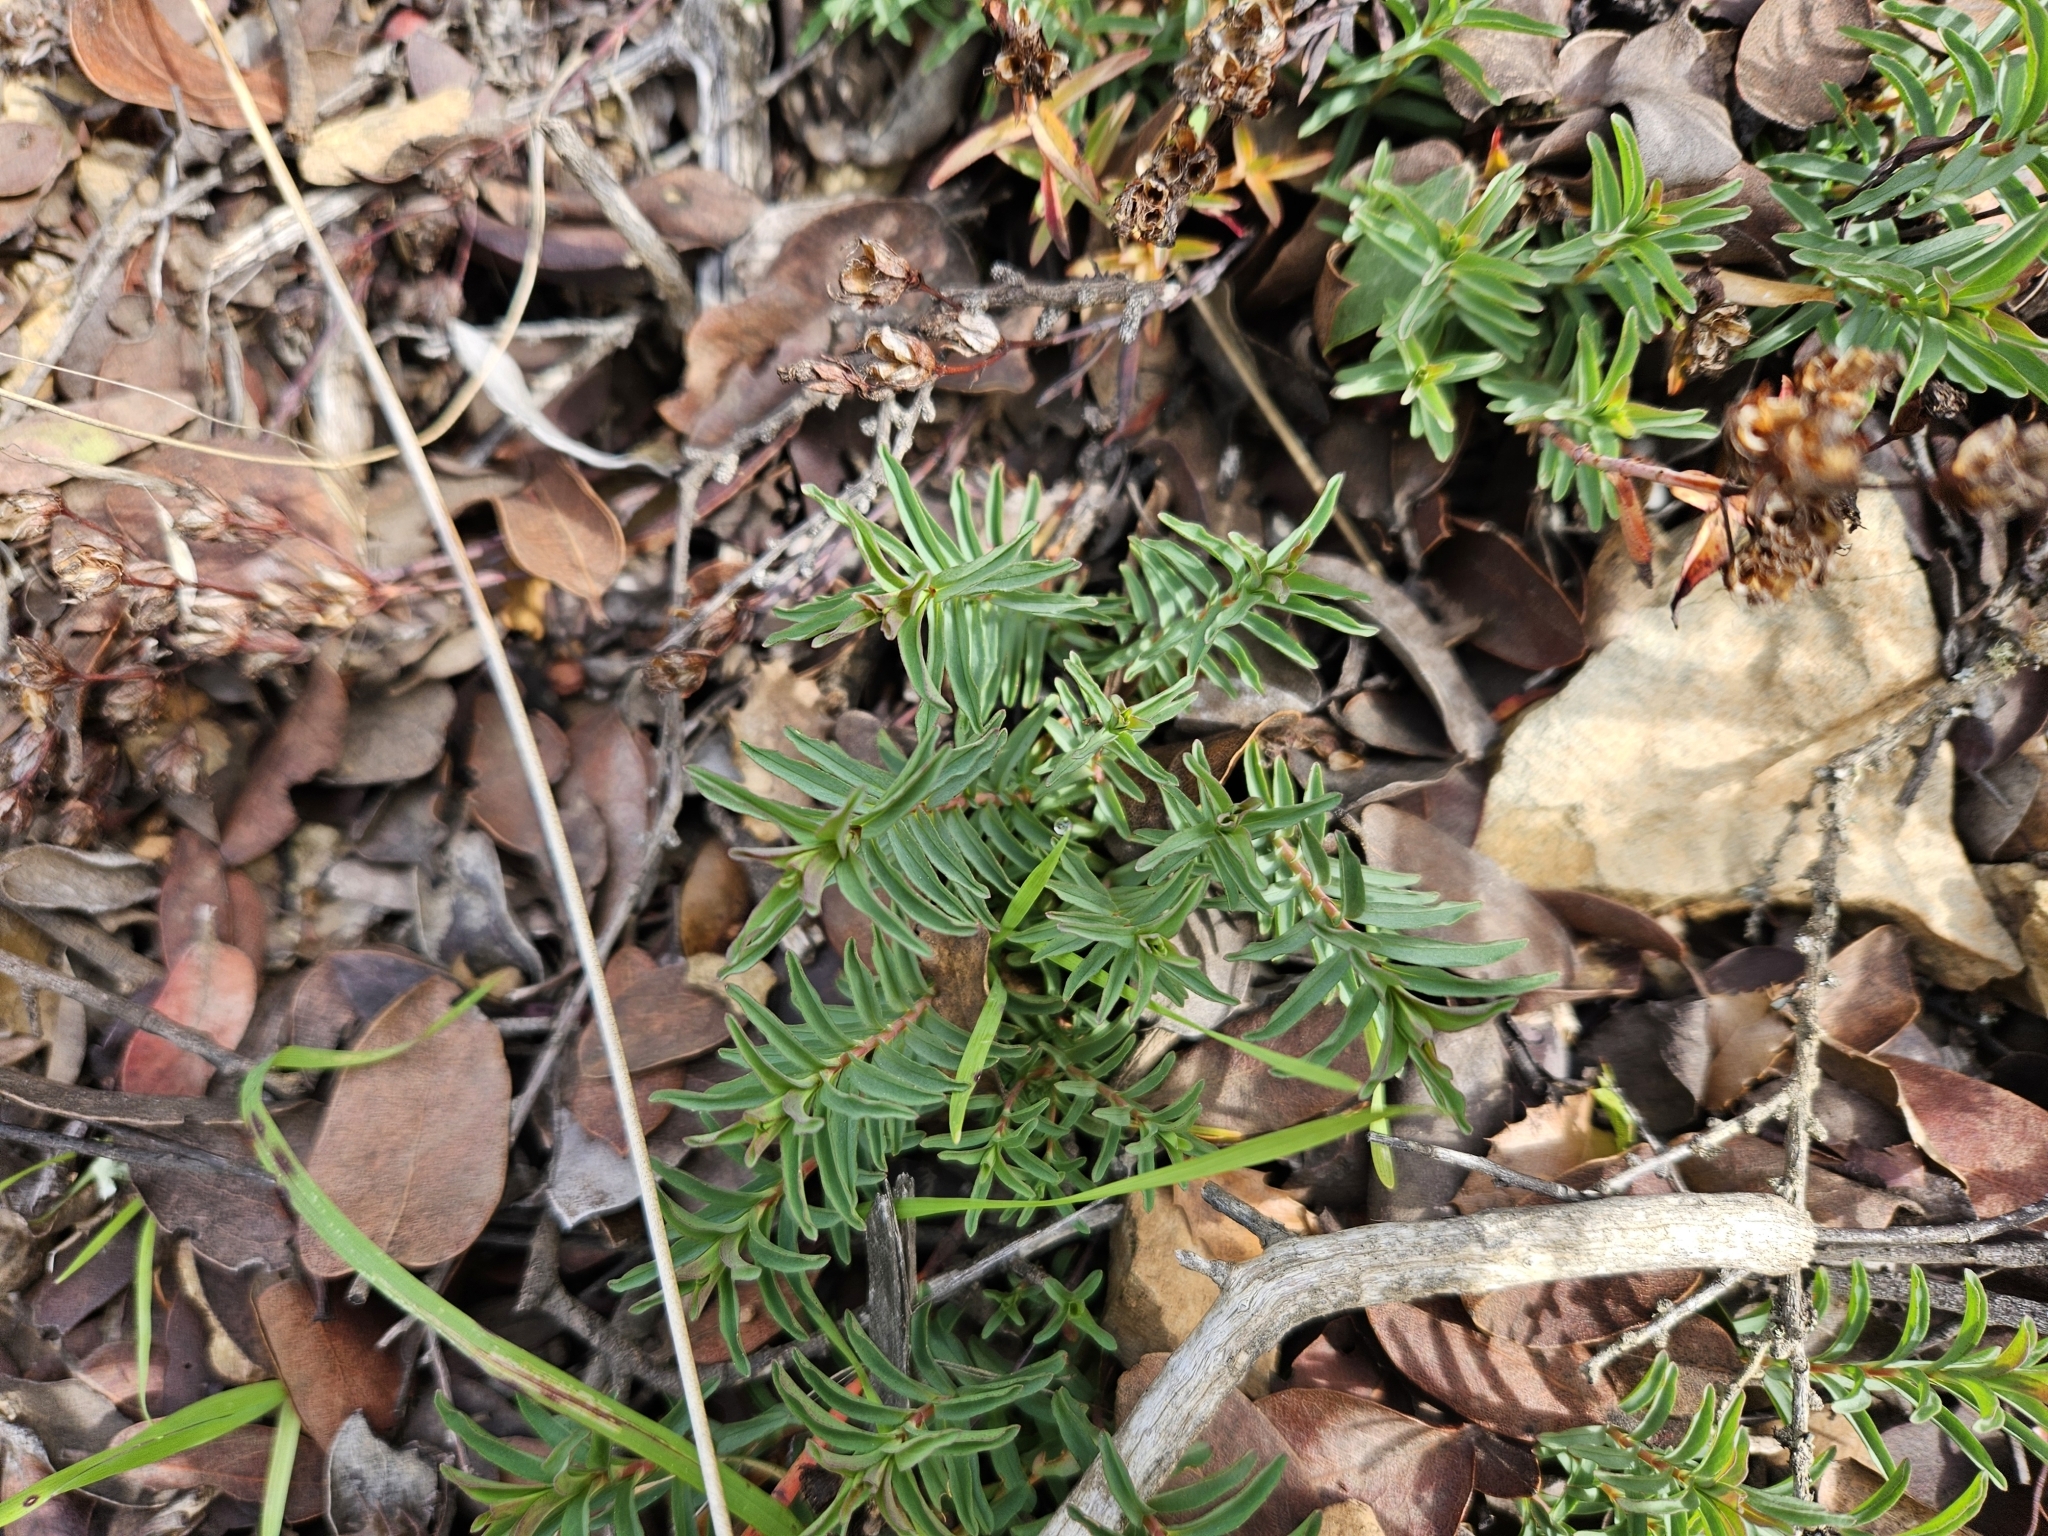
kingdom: Plantae
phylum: Tracheophyta
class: Magnoliopsida
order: Malpighiales
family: Hypericaceae
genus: Hypericum
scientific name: Hypericum concinnum
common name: Gold-wire
